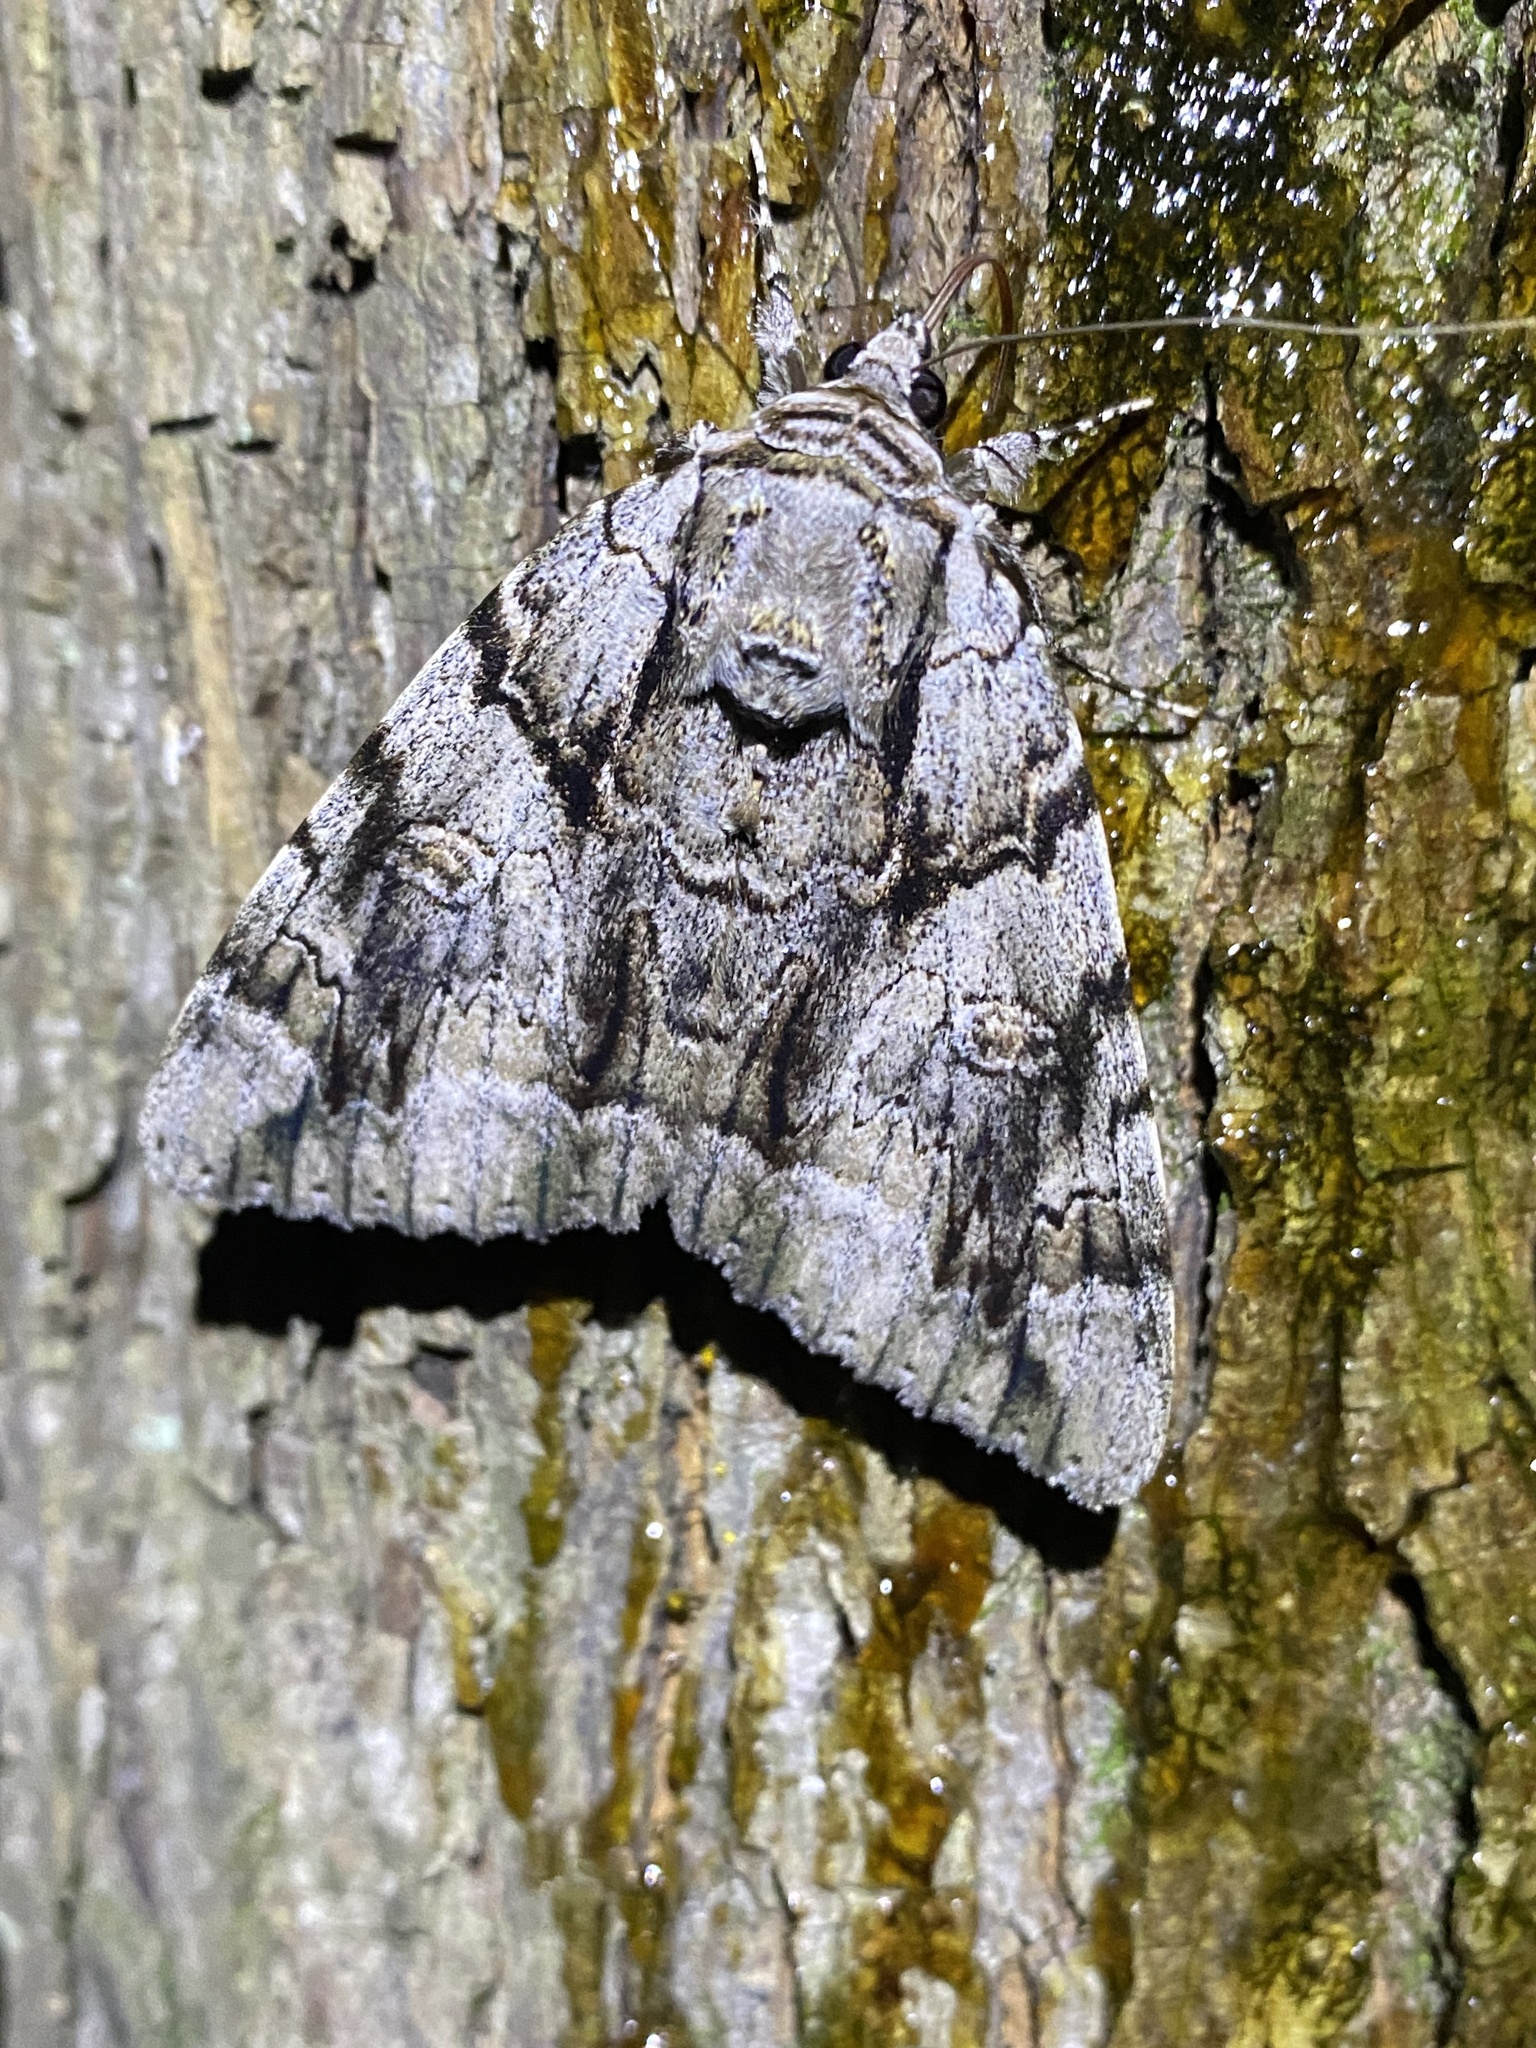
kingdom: Animalia
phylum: Arthropoda
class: Insecta
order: Lepidoptera
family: Erebidae
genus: Catocala
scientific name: Catocala vidua
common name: The widow
